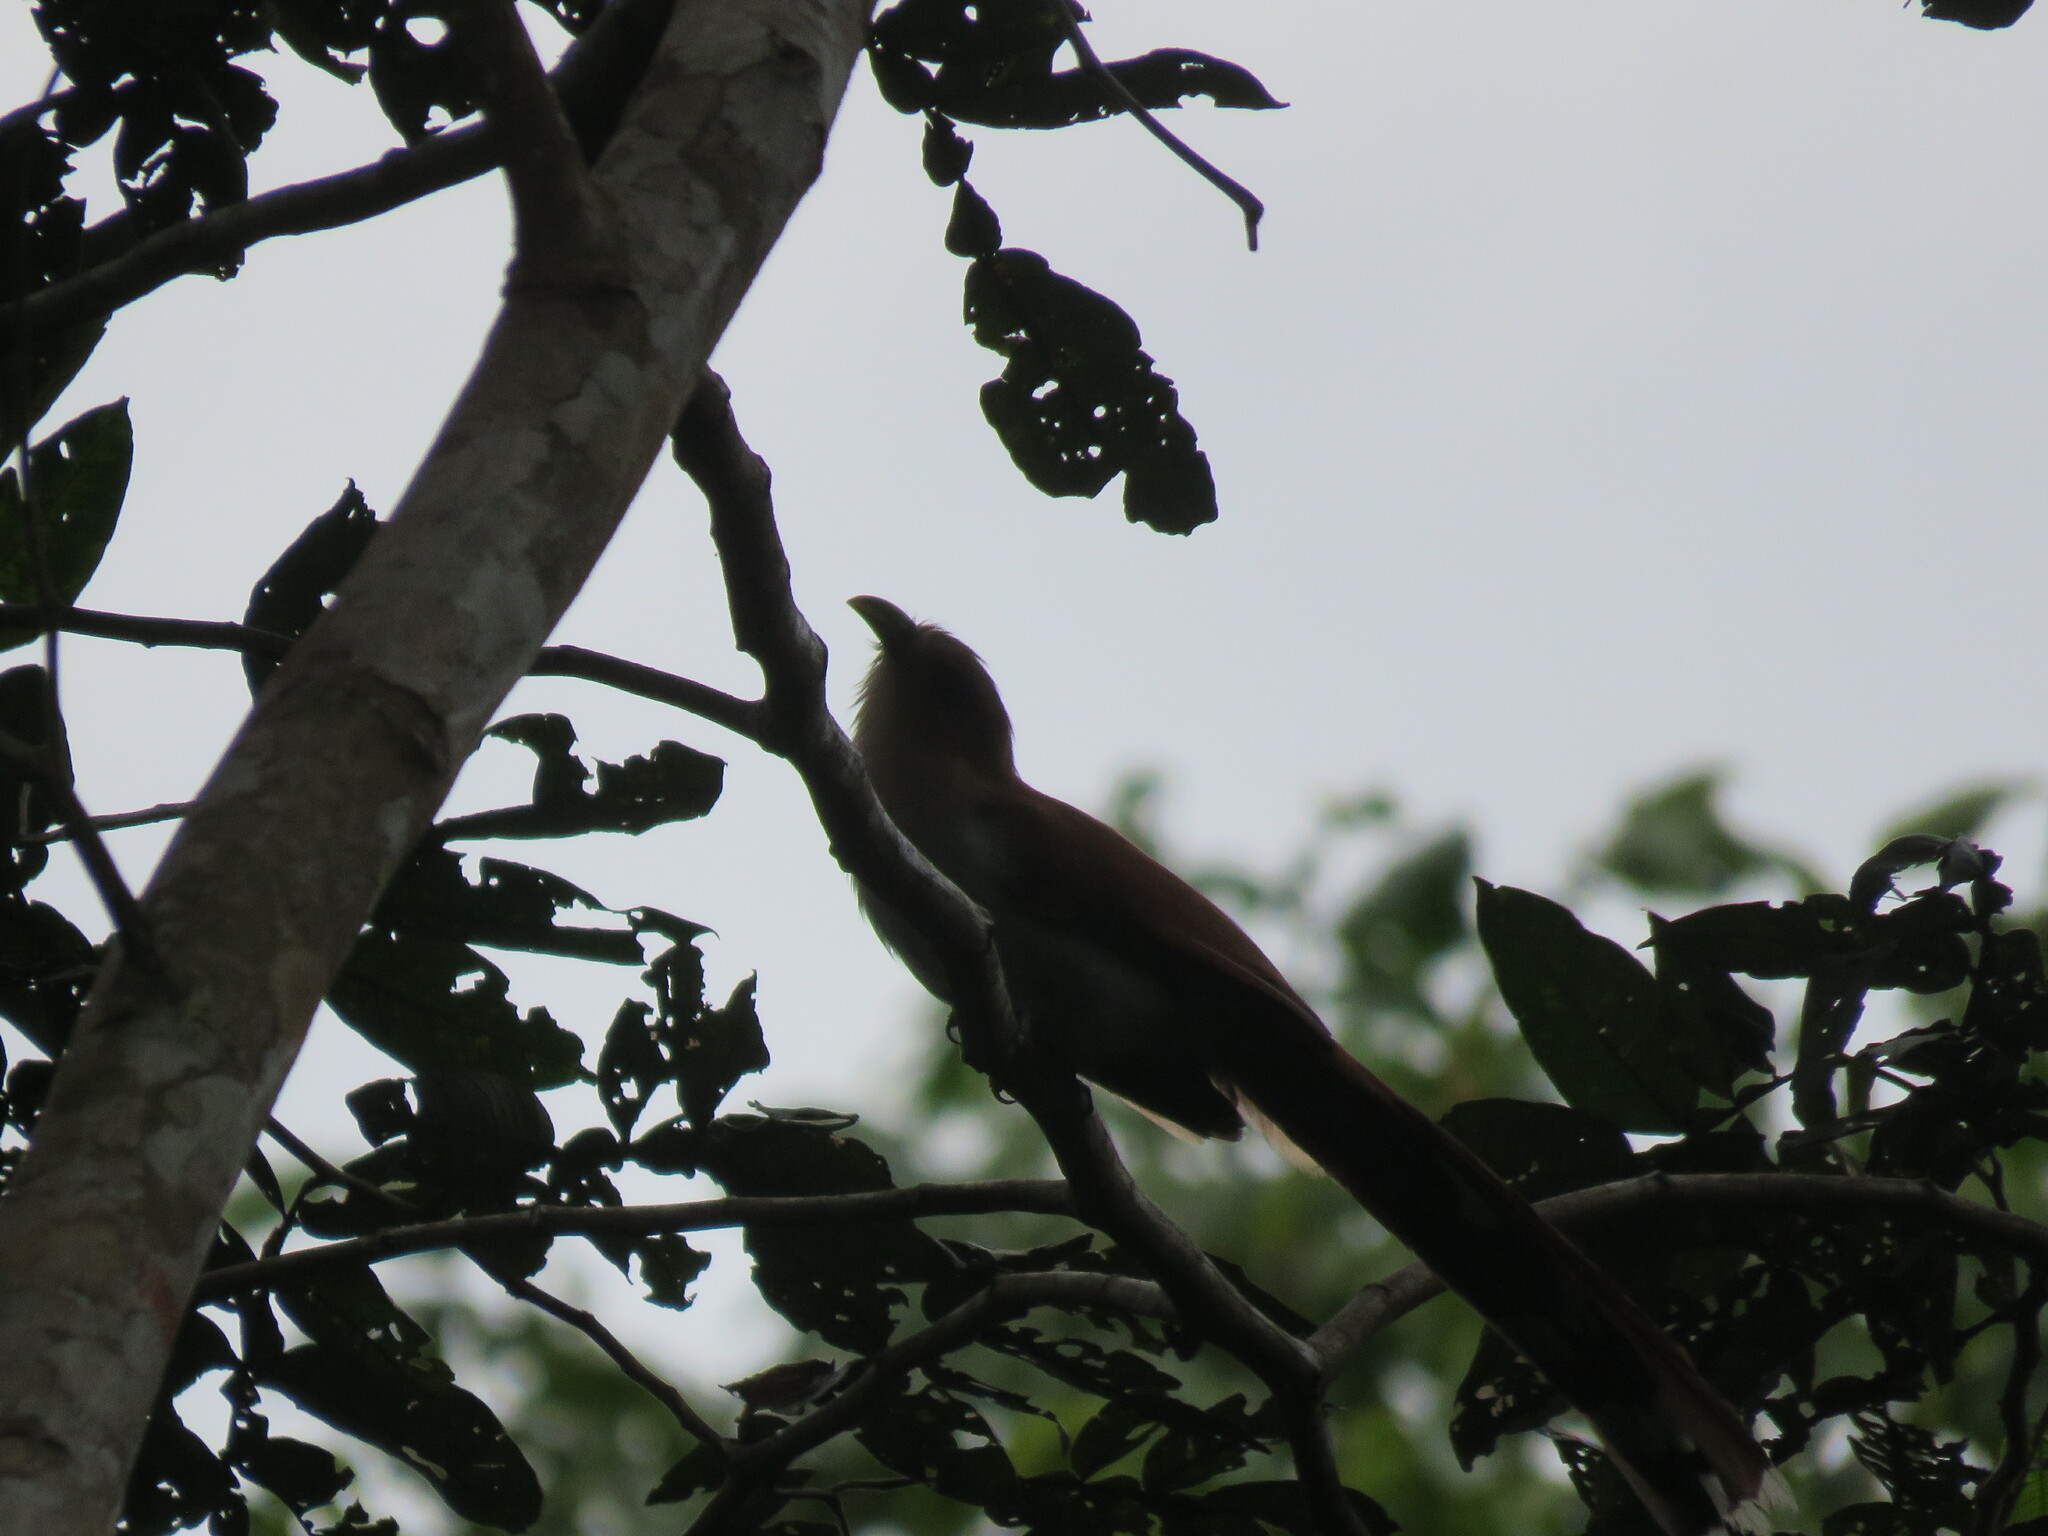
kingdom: Animalia
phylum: Chordata
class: Aves
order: Cuculiformes
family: Cuculidae
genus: Piaya
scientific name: Piaya cayana
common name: Squirrel cuckoo
